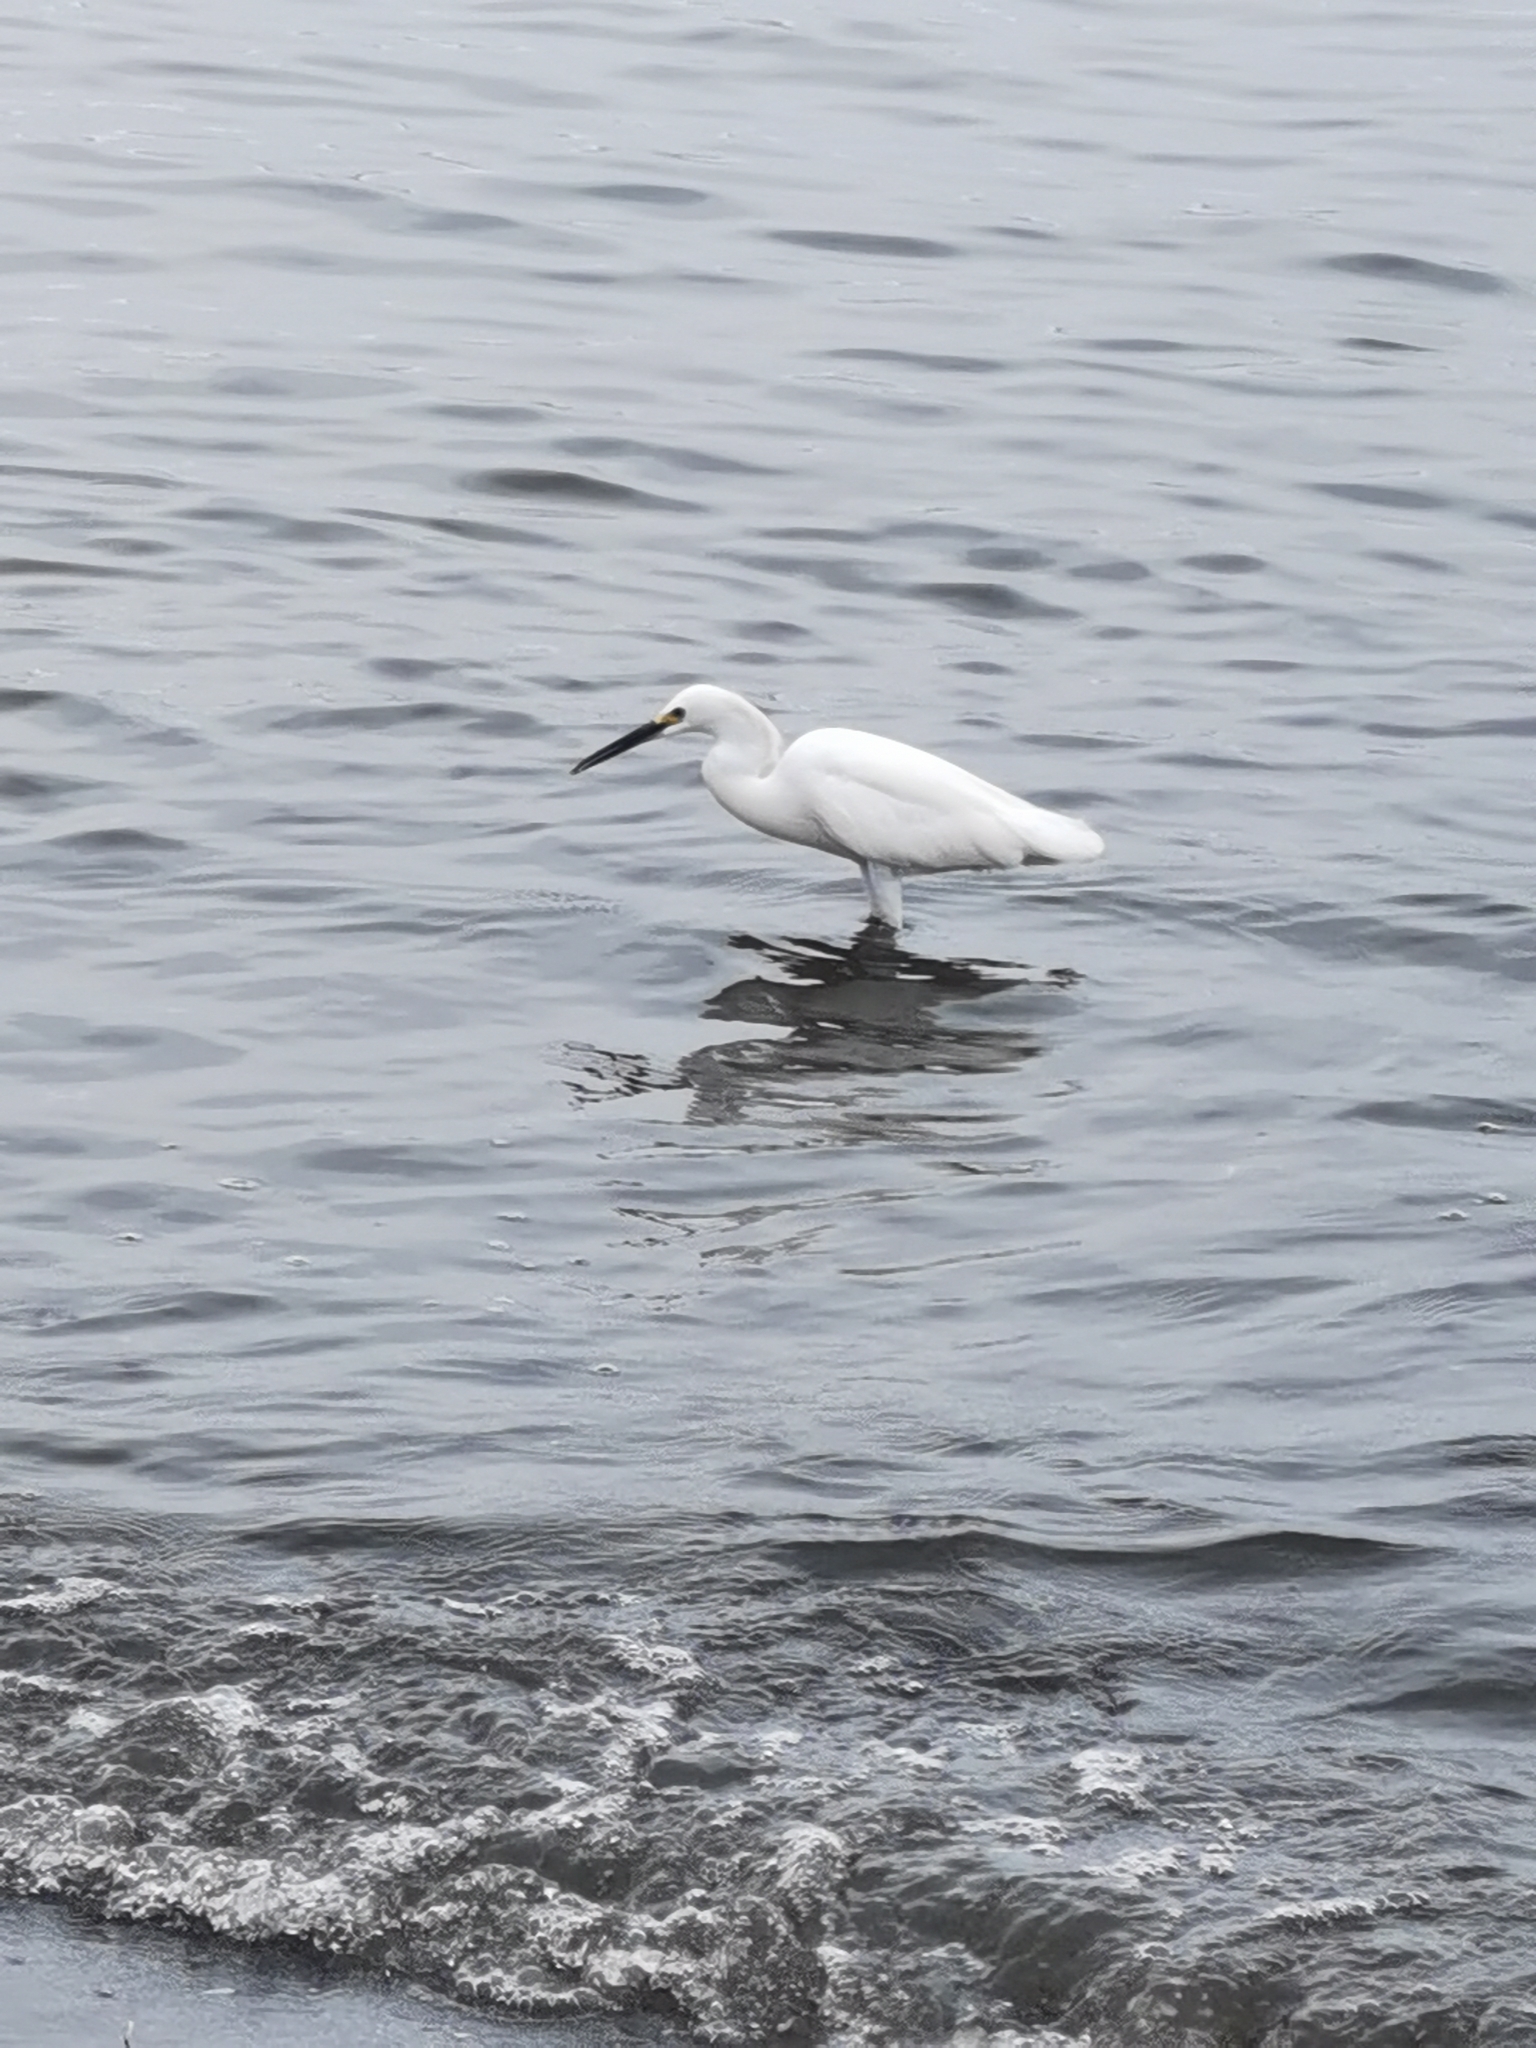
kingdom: Animalia
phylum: Chordata
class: Aves
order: Pelecaniformes
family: Ardeidae
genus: Egretta
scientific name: Egretta thula
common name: Snowy egret
